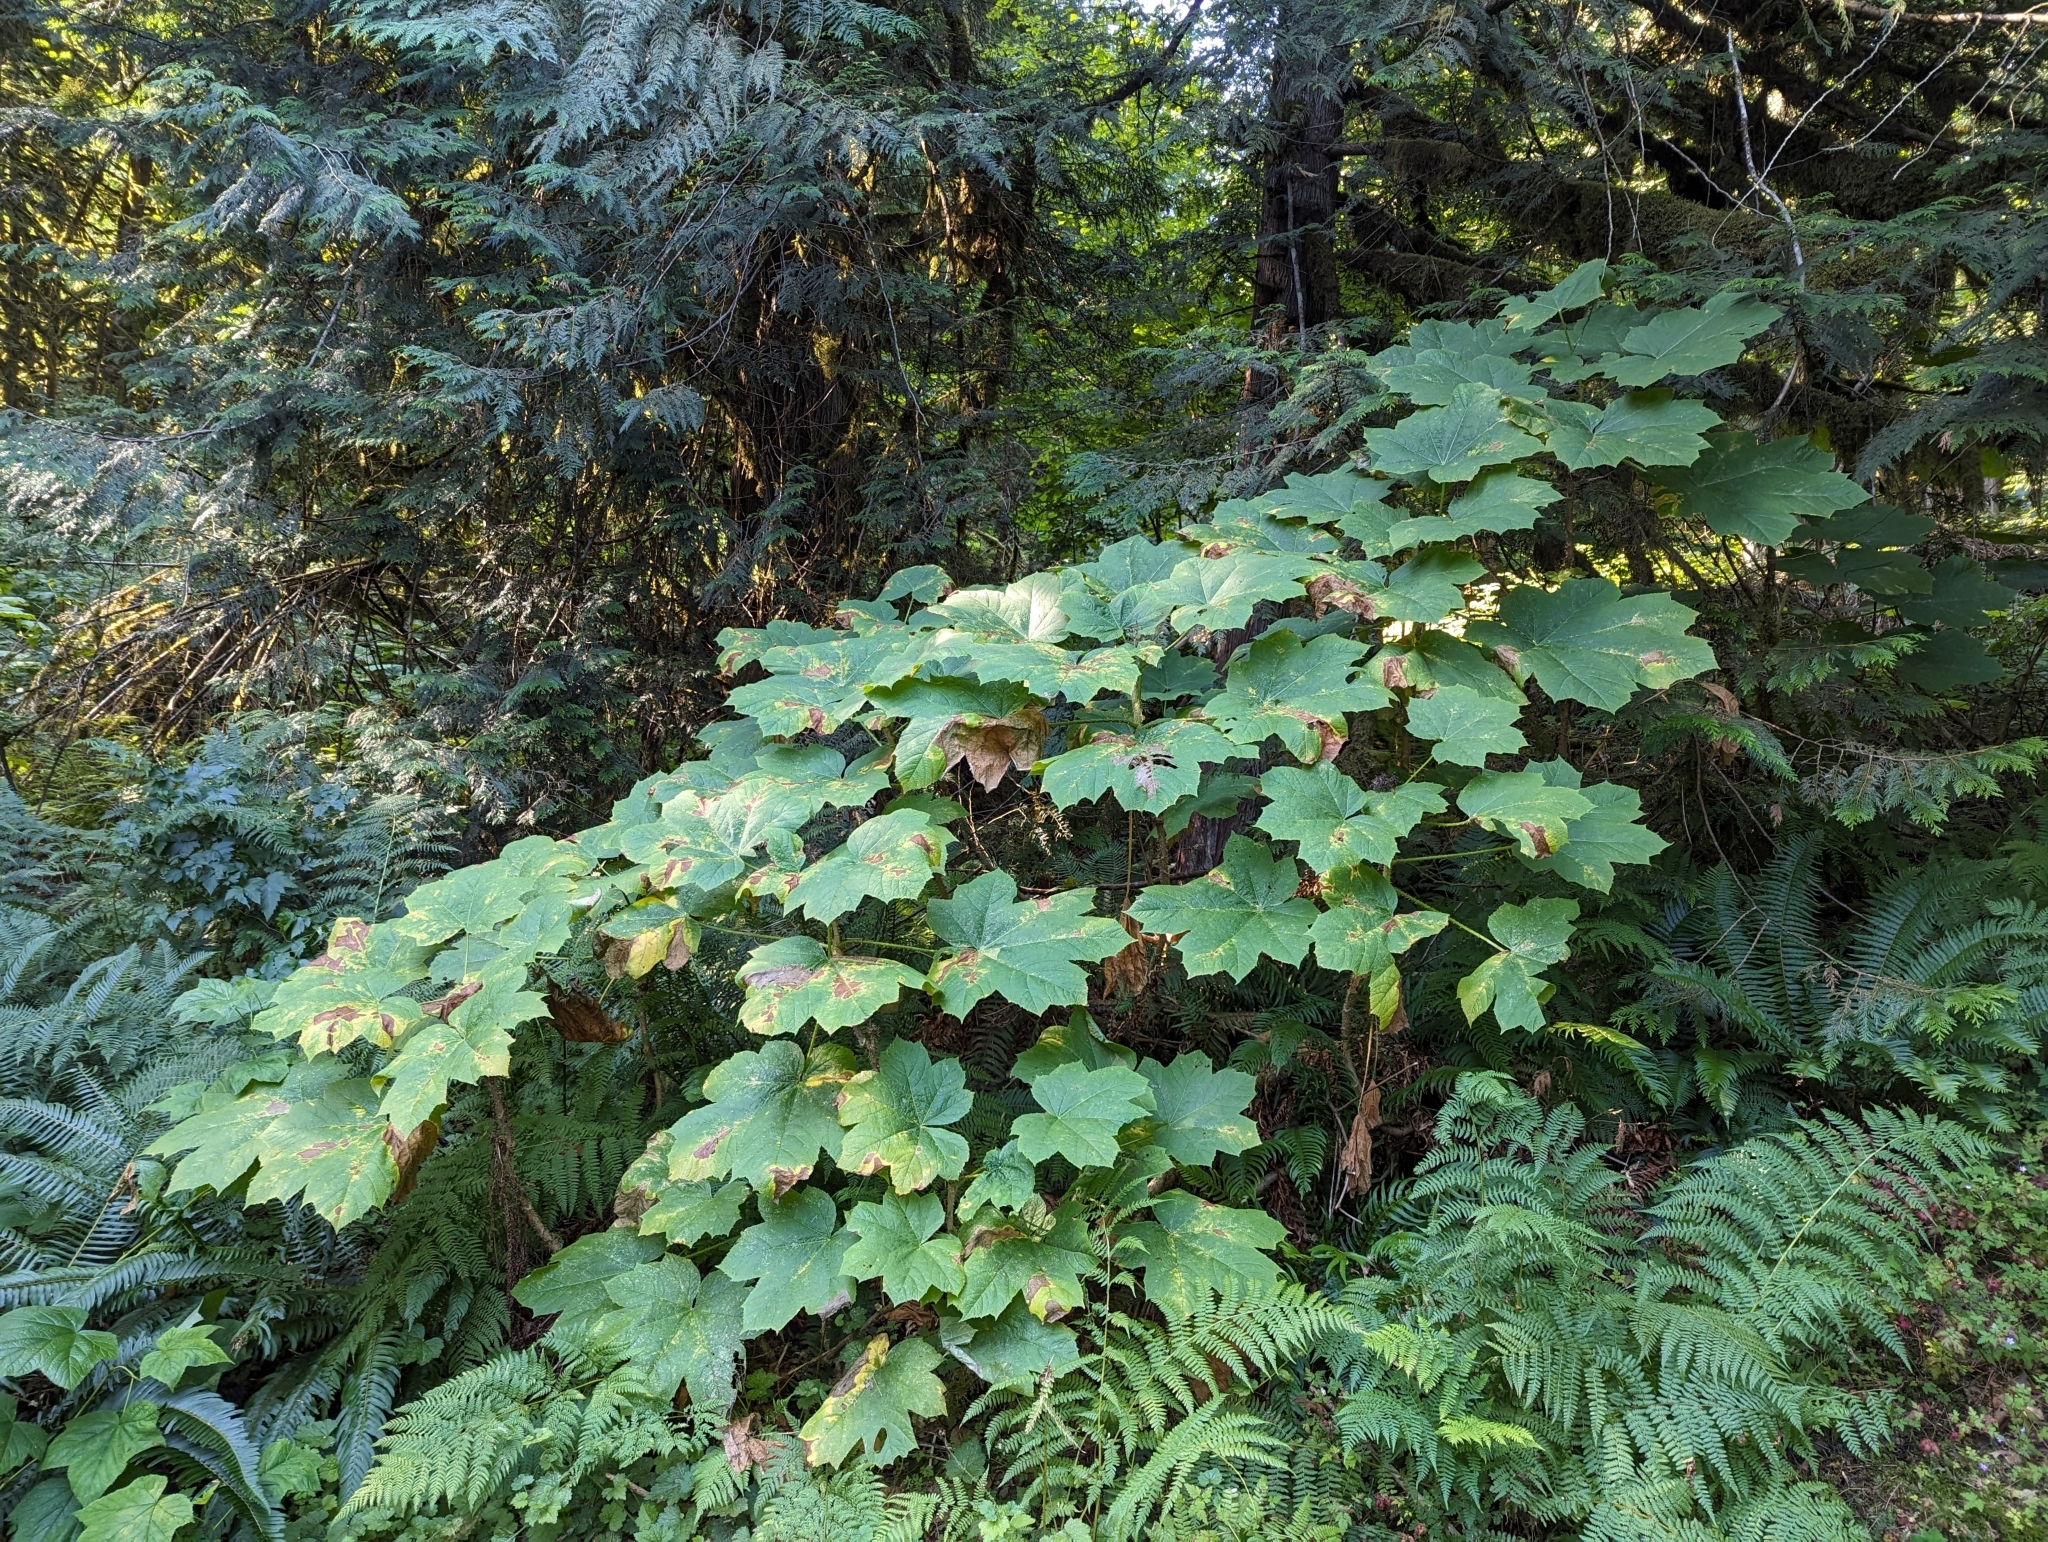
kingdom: Plantae
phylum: Tracheophyta
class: Magnoliopsida
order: Apiales
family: Araliaceae
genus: Oplopanax
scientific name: Oplopanax horridus
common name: Devil's walking-stick
